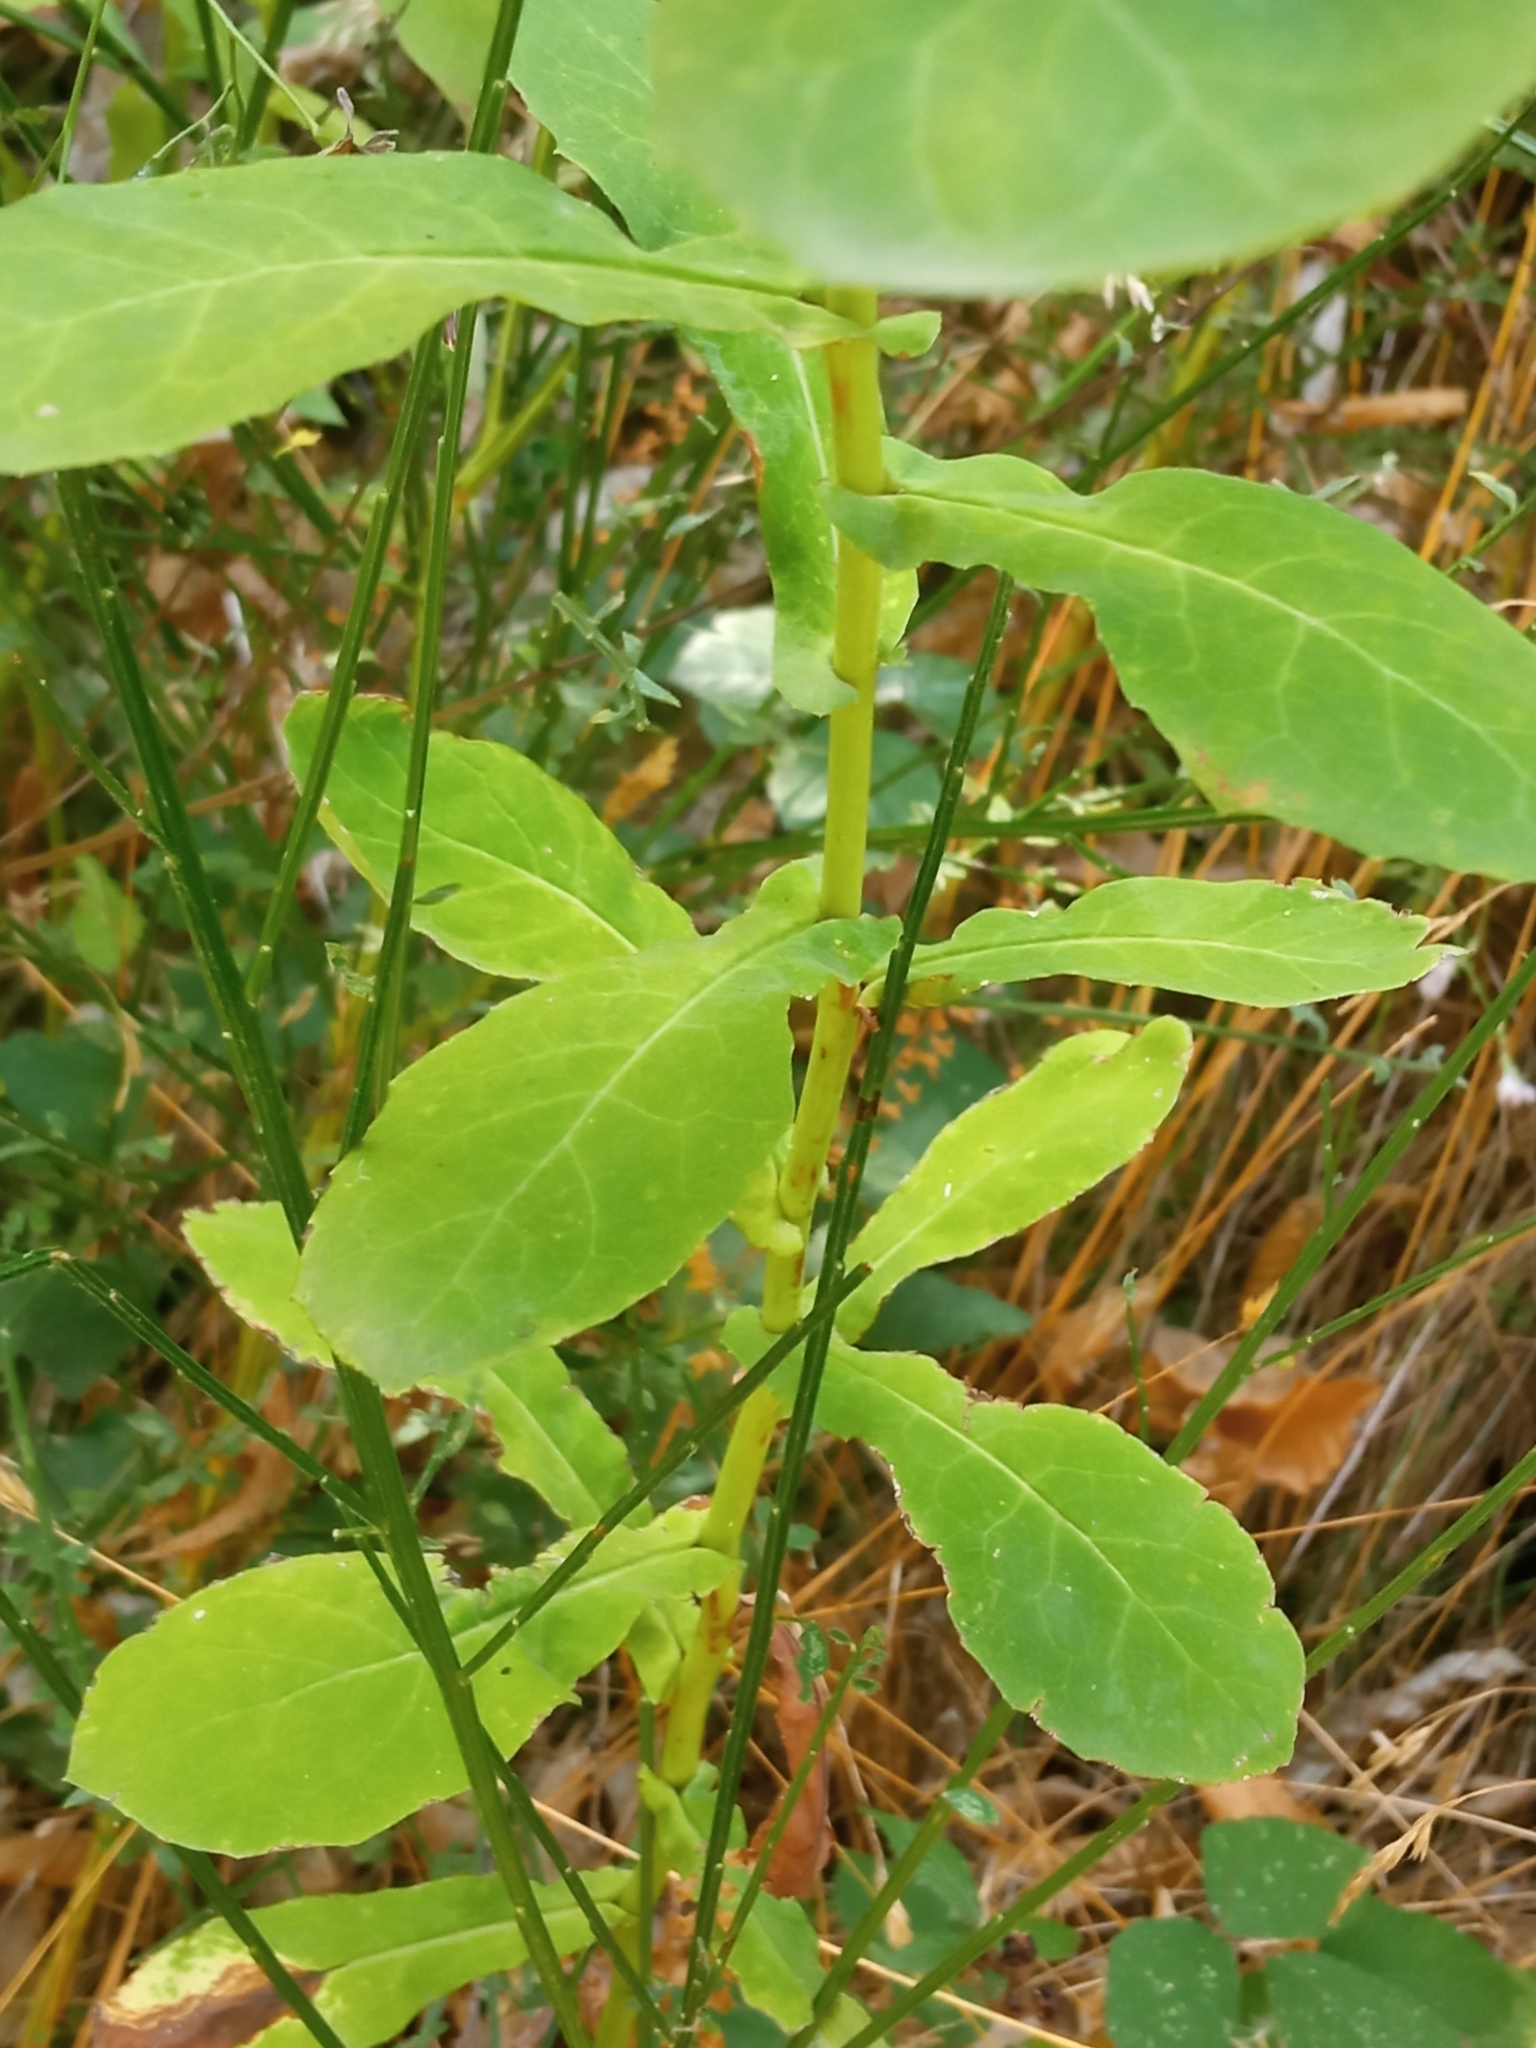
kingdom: Plantae
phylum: Tracheophyta
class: Magnoliopsida
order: Asterales
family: Asteraceae
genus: Prenanthes
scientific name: Prenanthes purpurea
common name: Purple lettuce
